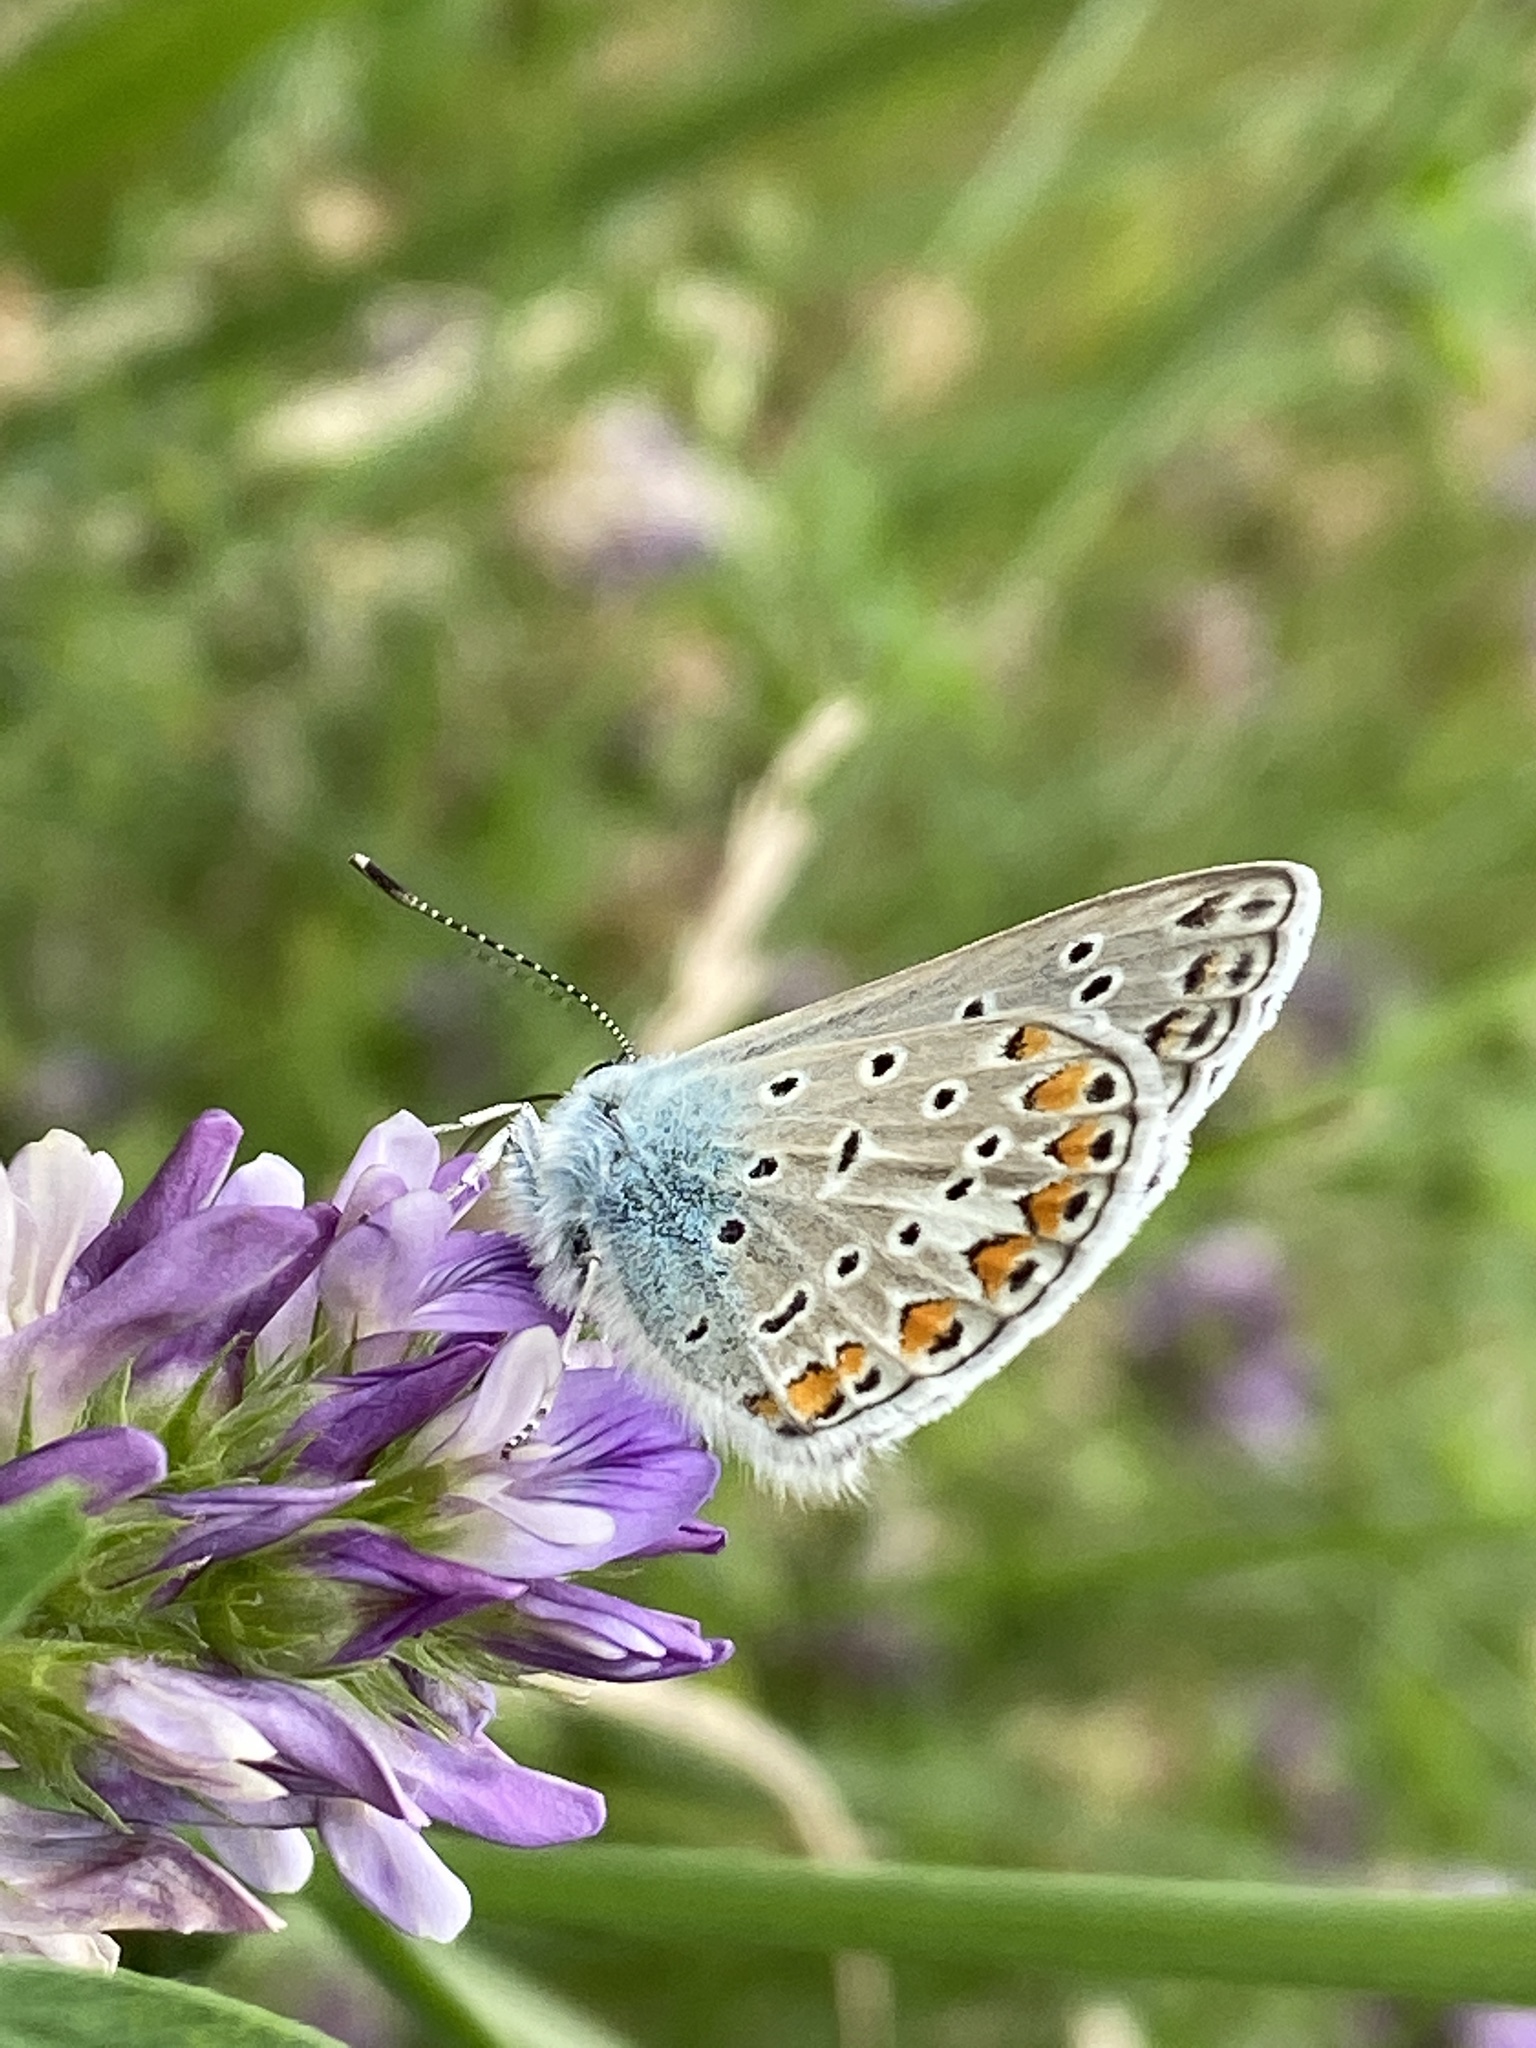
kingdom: Animalia
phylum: Arthropoda
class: Insecta
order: Lepidoptera
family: Lycaenidae
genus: Polyommatus
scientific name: Polyommatus icarus
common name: Common blue
